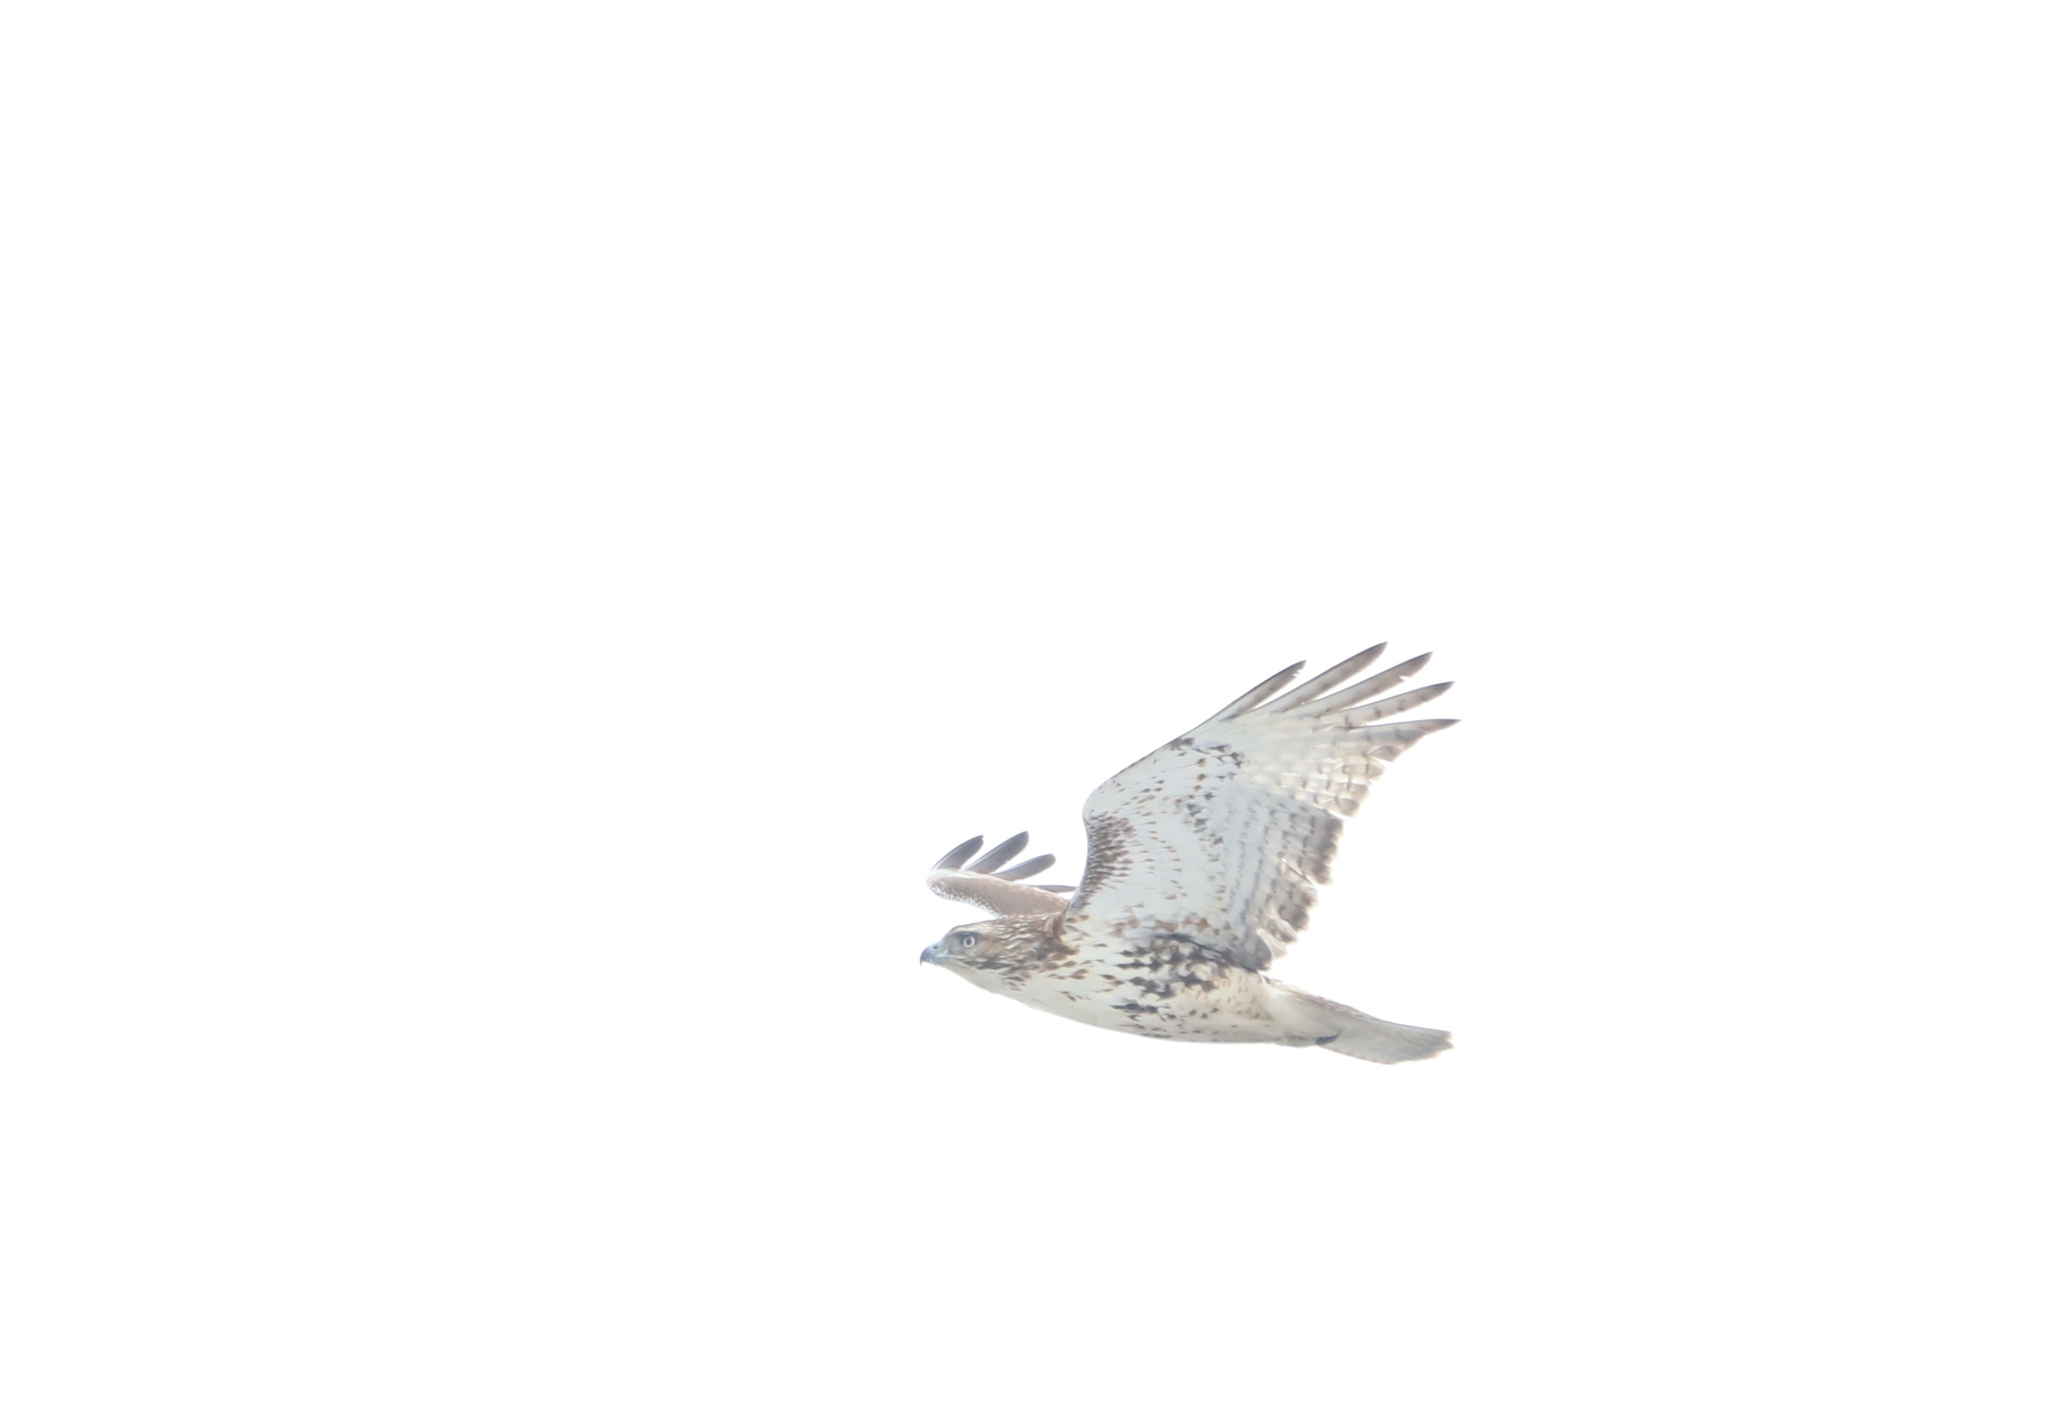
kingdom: Animalia
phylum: Chordata
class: Aves
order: Accipitriformes
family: Accipitridae
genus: Buteo
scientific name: Buteo jamaicensis
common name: Red-tailed hawk
